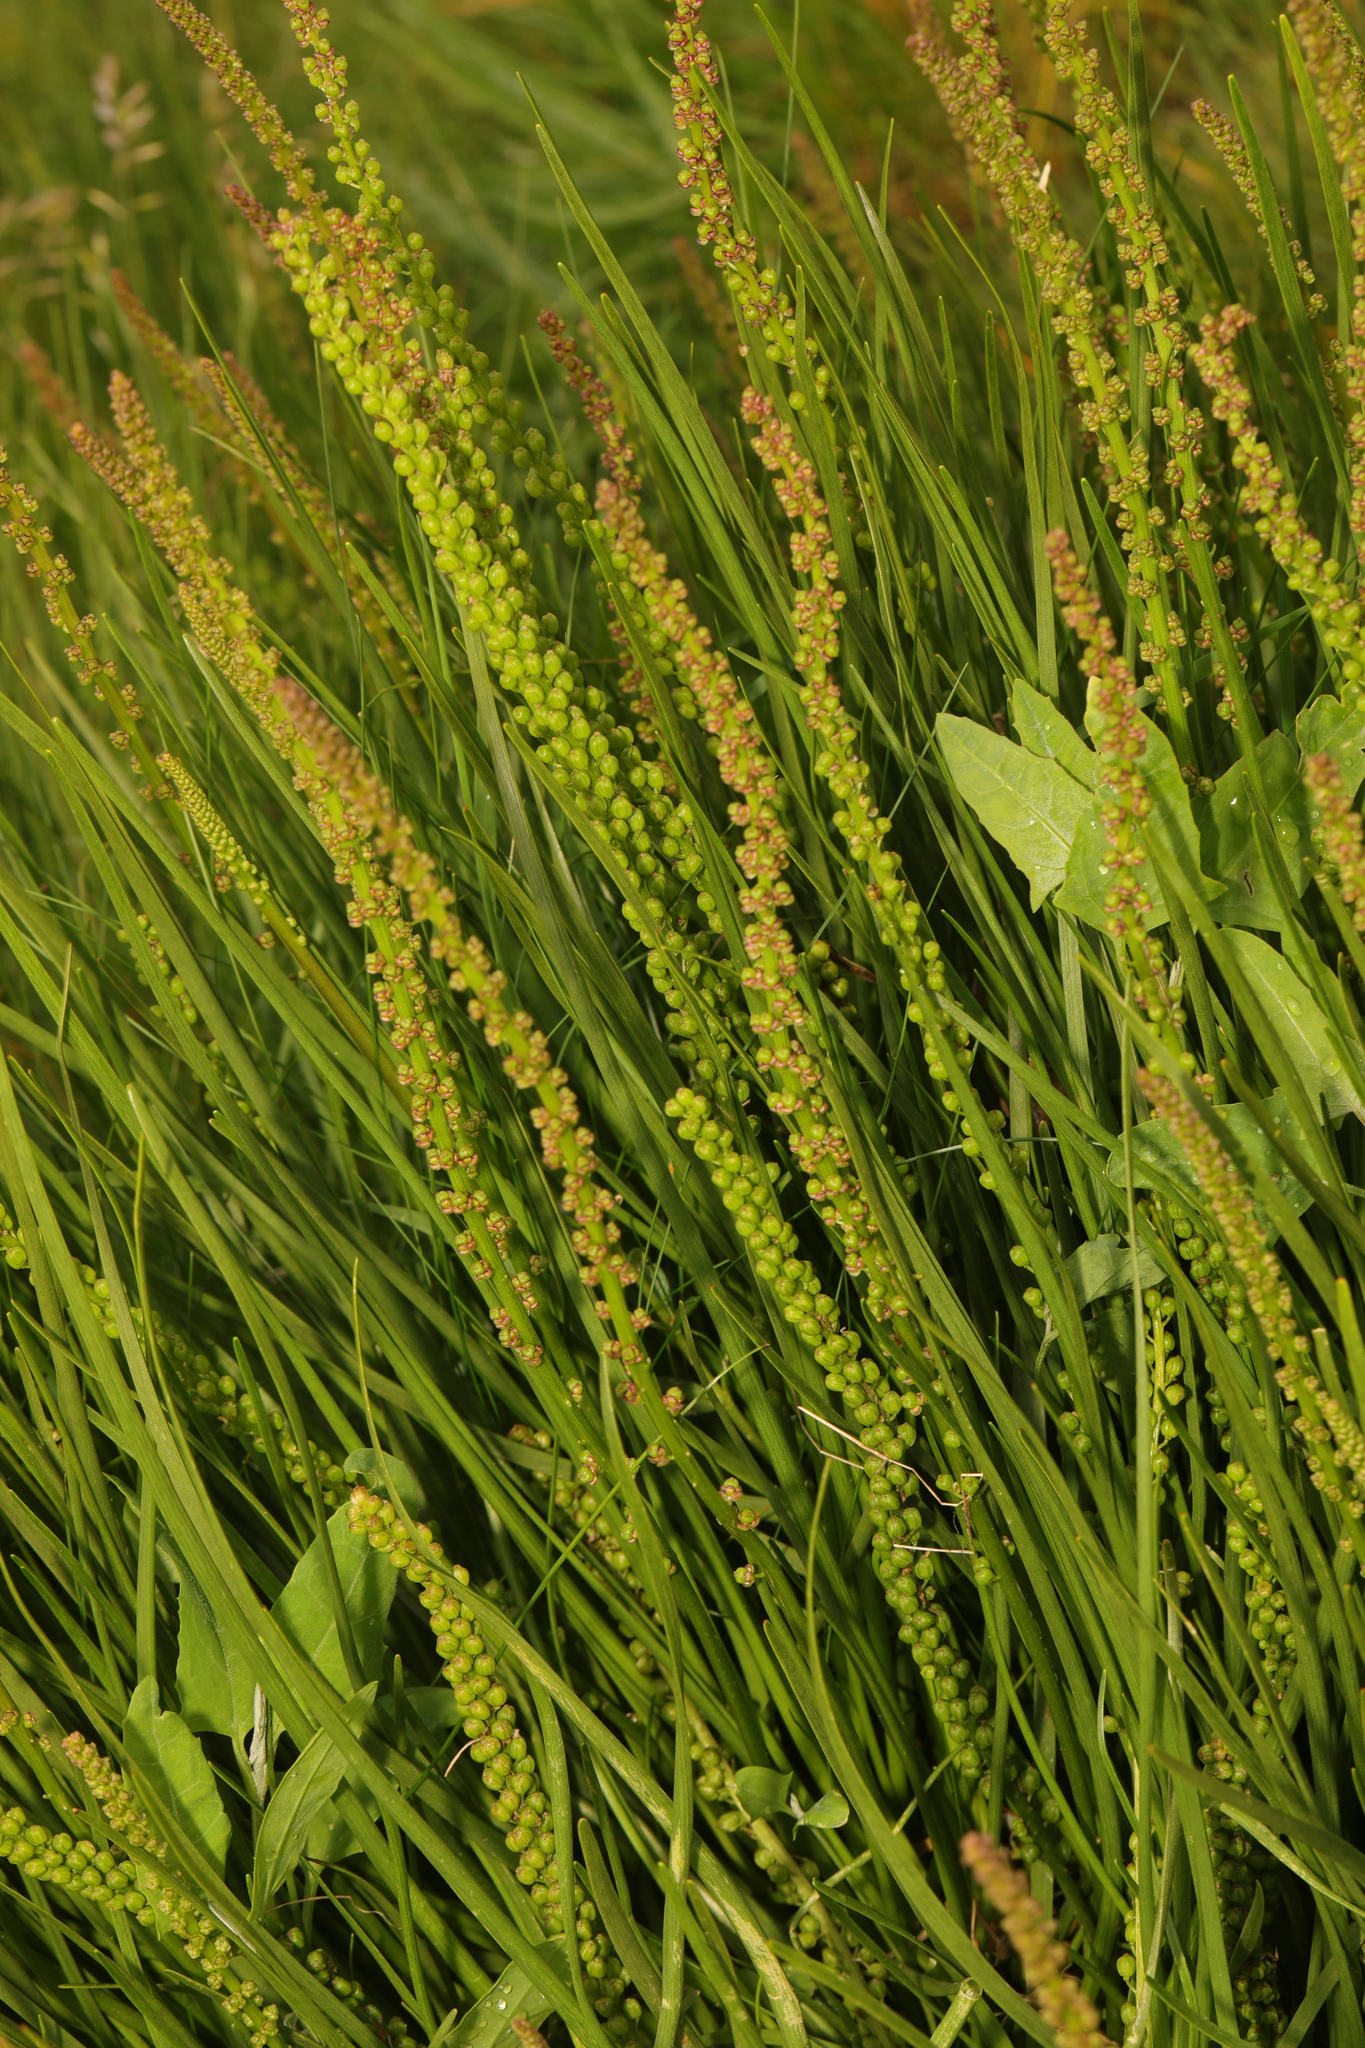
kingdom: Plantae
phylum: Tracheophyta
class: Liliopsida
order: Alismatales
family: Juncaginaceae
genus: Triglochin
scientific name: Triglochin maritima
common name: Sea arrowgrass
